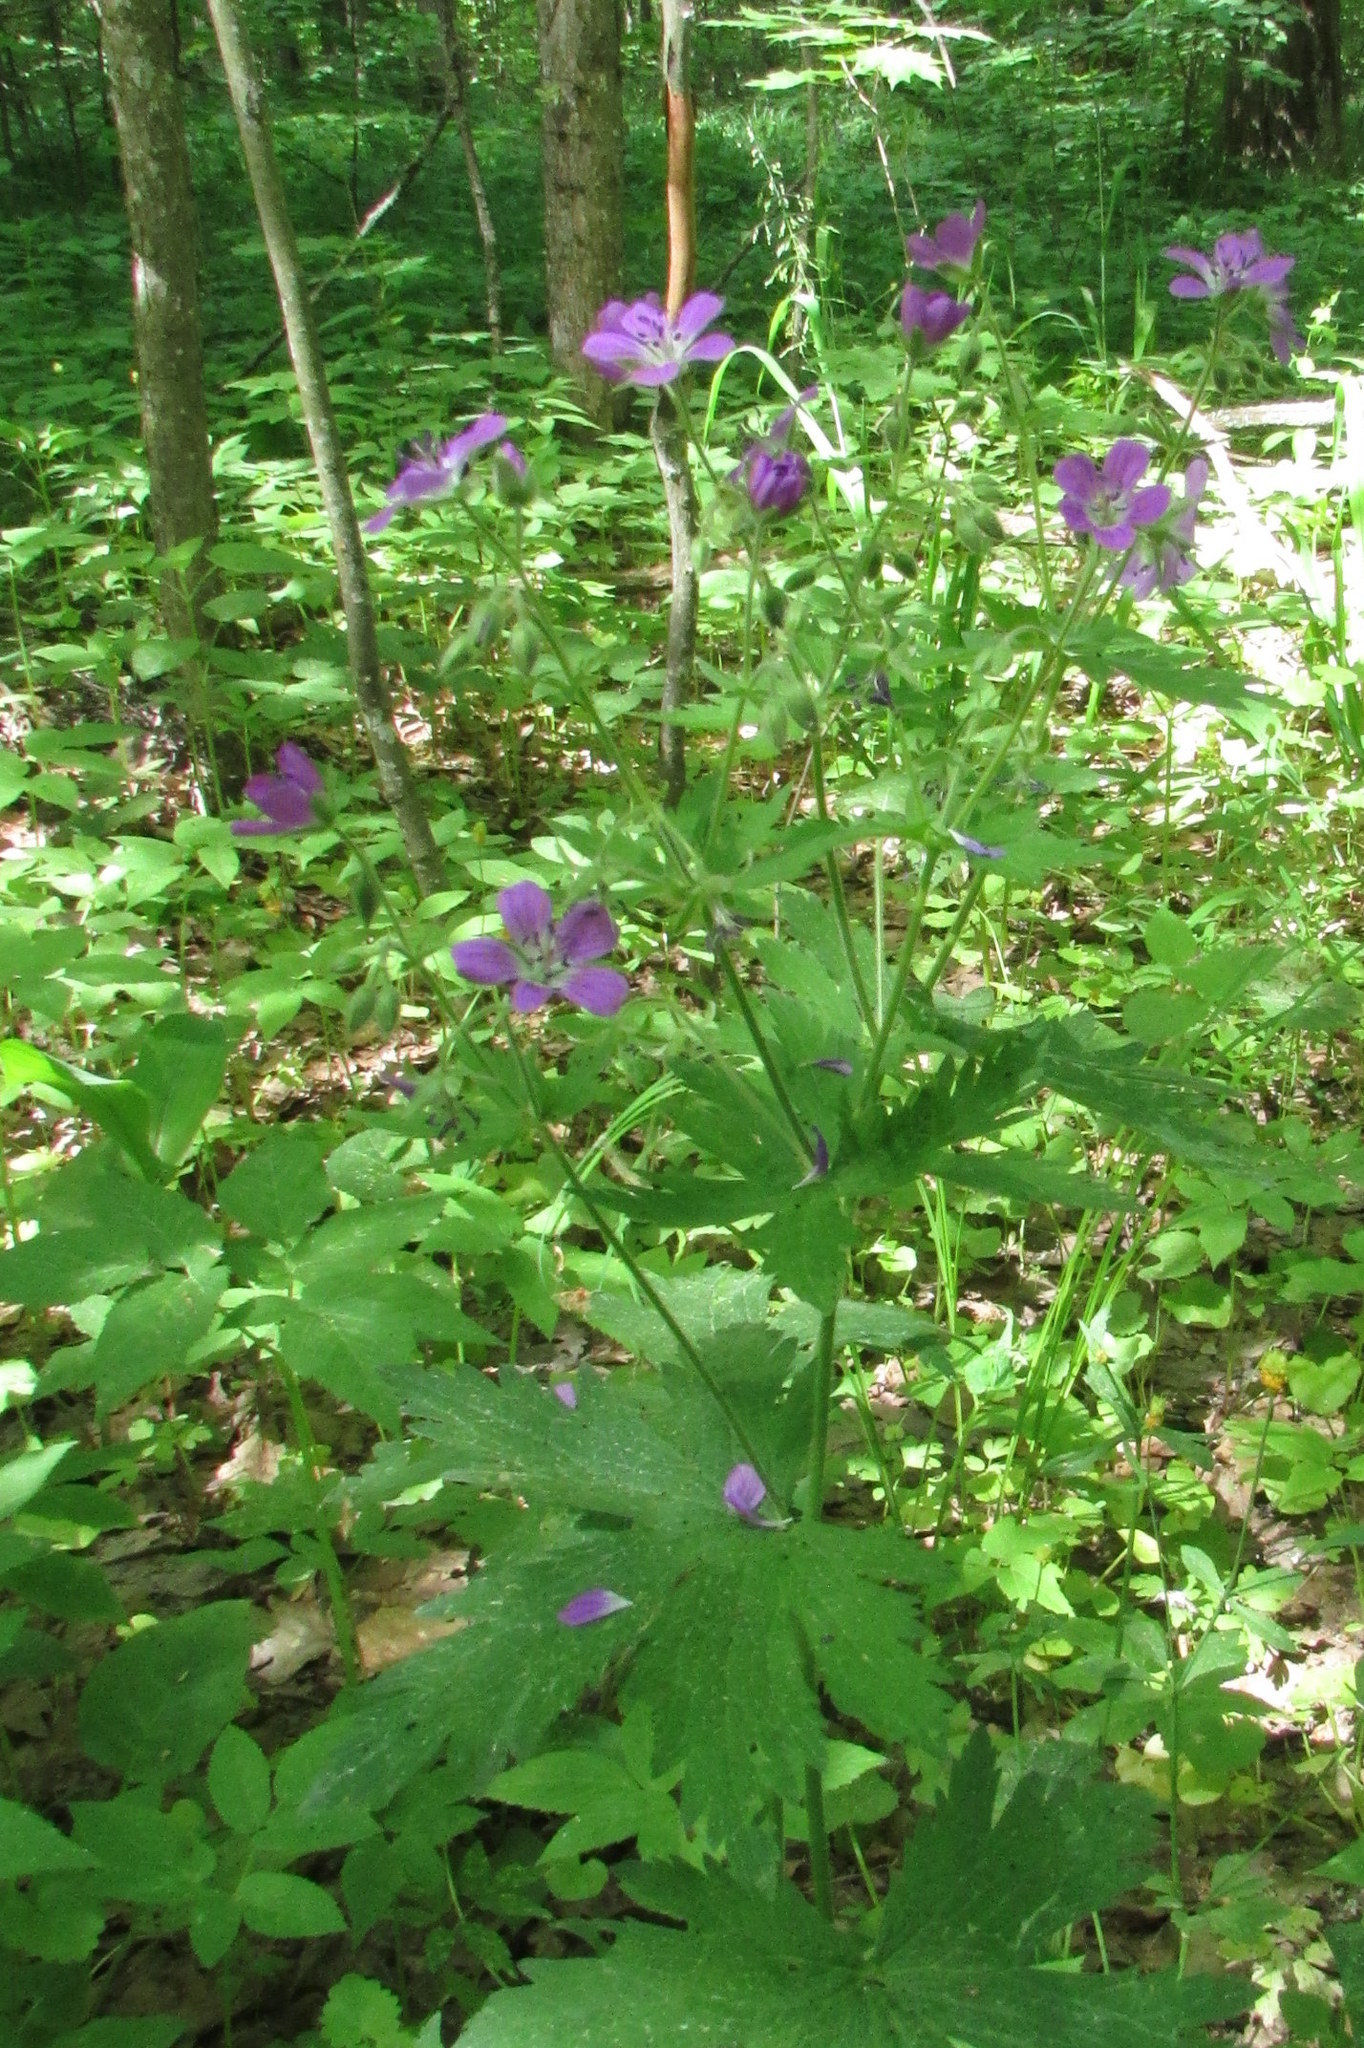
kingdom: Plantae
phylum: Tracheophyta
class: Magnoliopsida
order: Geraniales
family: Geraniaceae
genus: Geranium
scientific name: Geranium sylvaticum
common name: Wood crane's-bill
